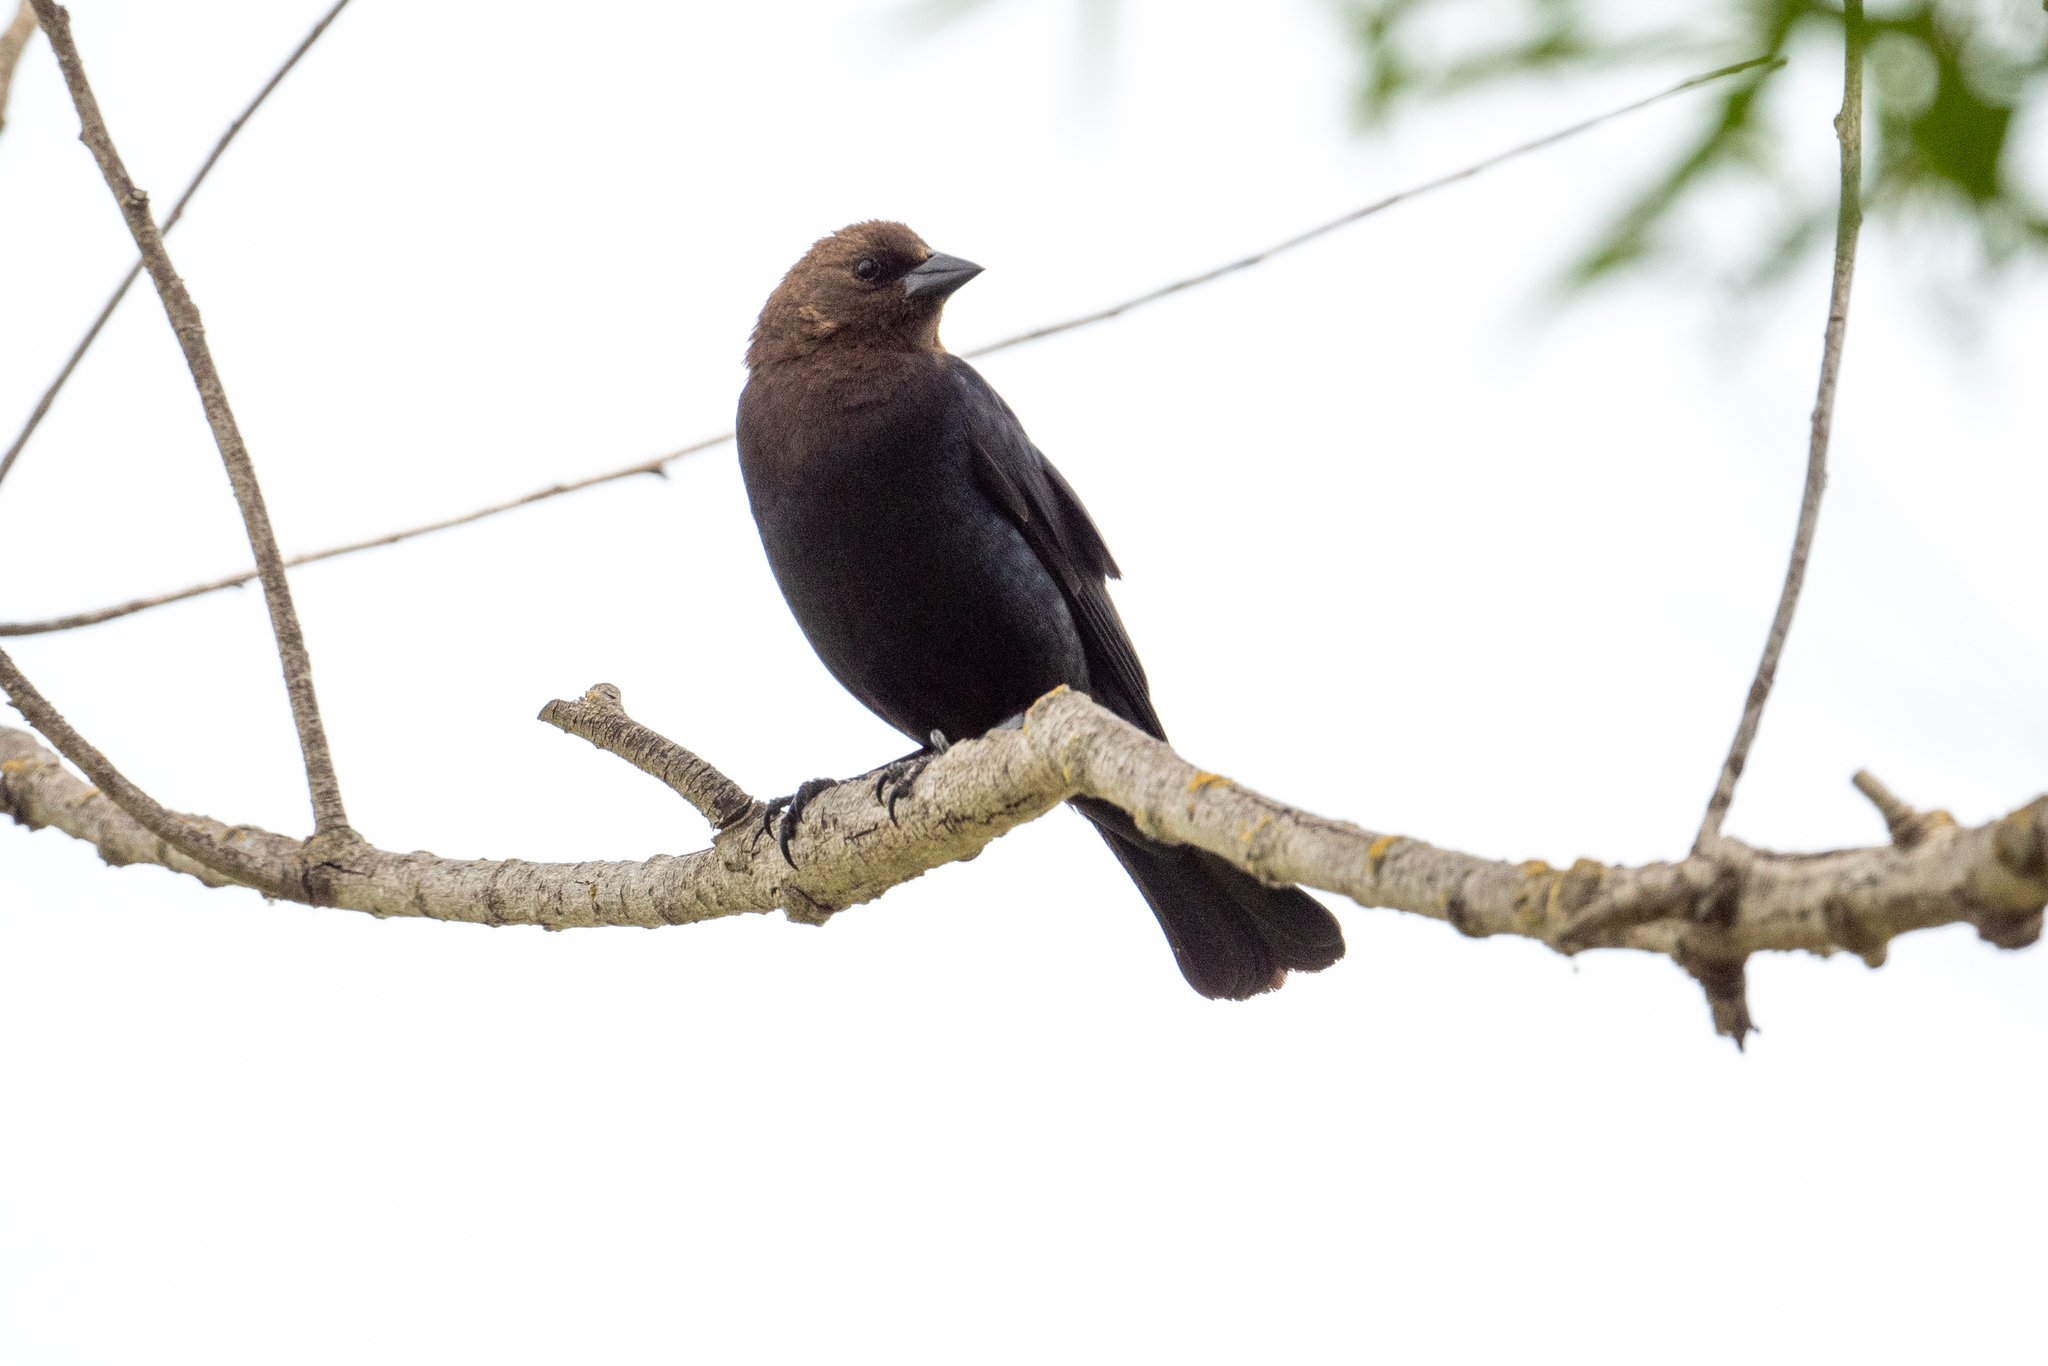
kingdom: Animalia
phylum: Chordata
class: Aves
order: Passeriformes
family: Icteridae
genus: Molothrus
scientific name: Molothrus ater
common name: Brown-headed cowbird
